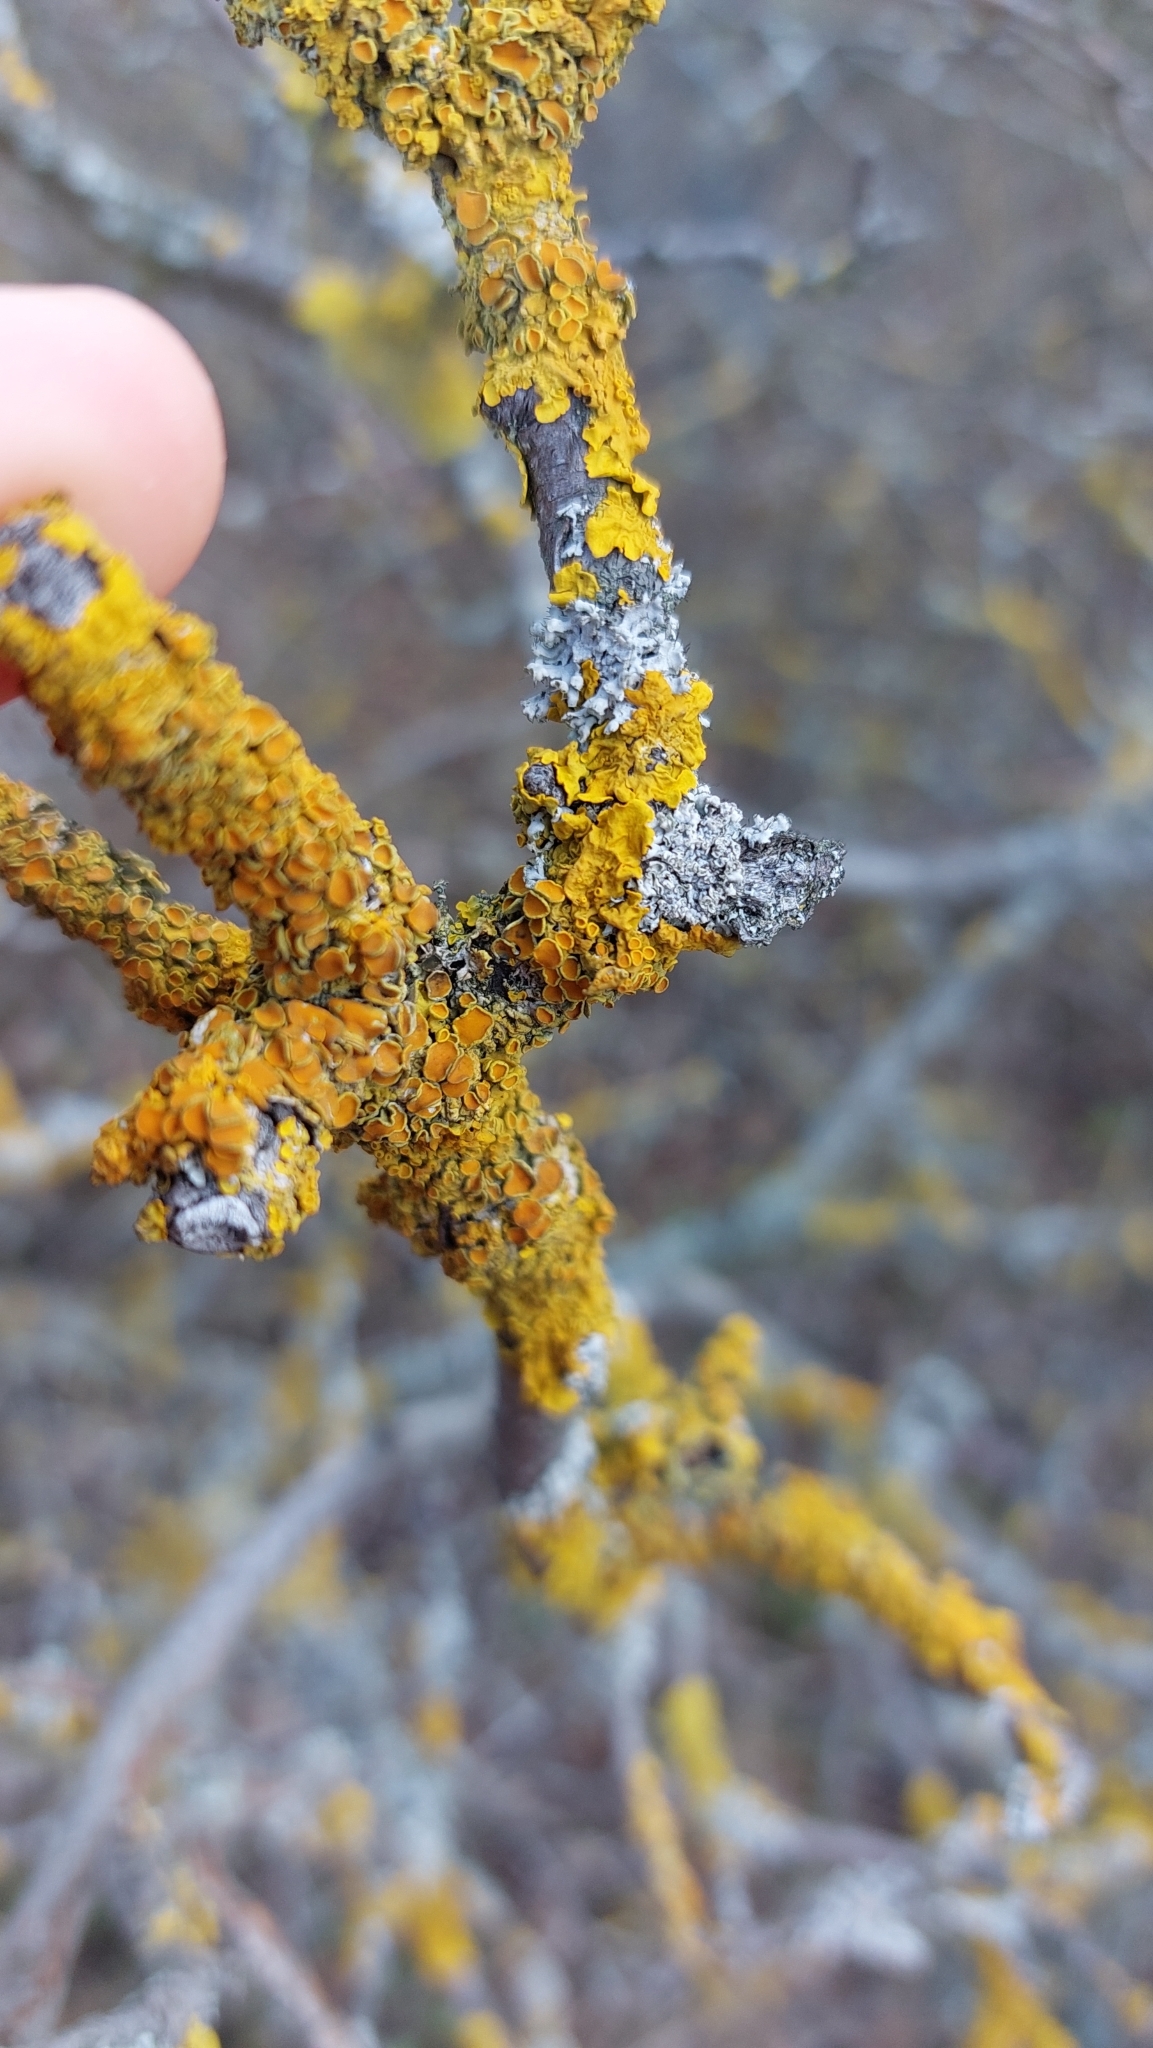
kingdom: Fungi
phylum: Ascomycota
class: Lecanoromycetes
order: Teloschistales
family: Teloschistaceae
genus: Xanthoria
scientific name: Xanthoria parietina
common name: Common orange lichen
